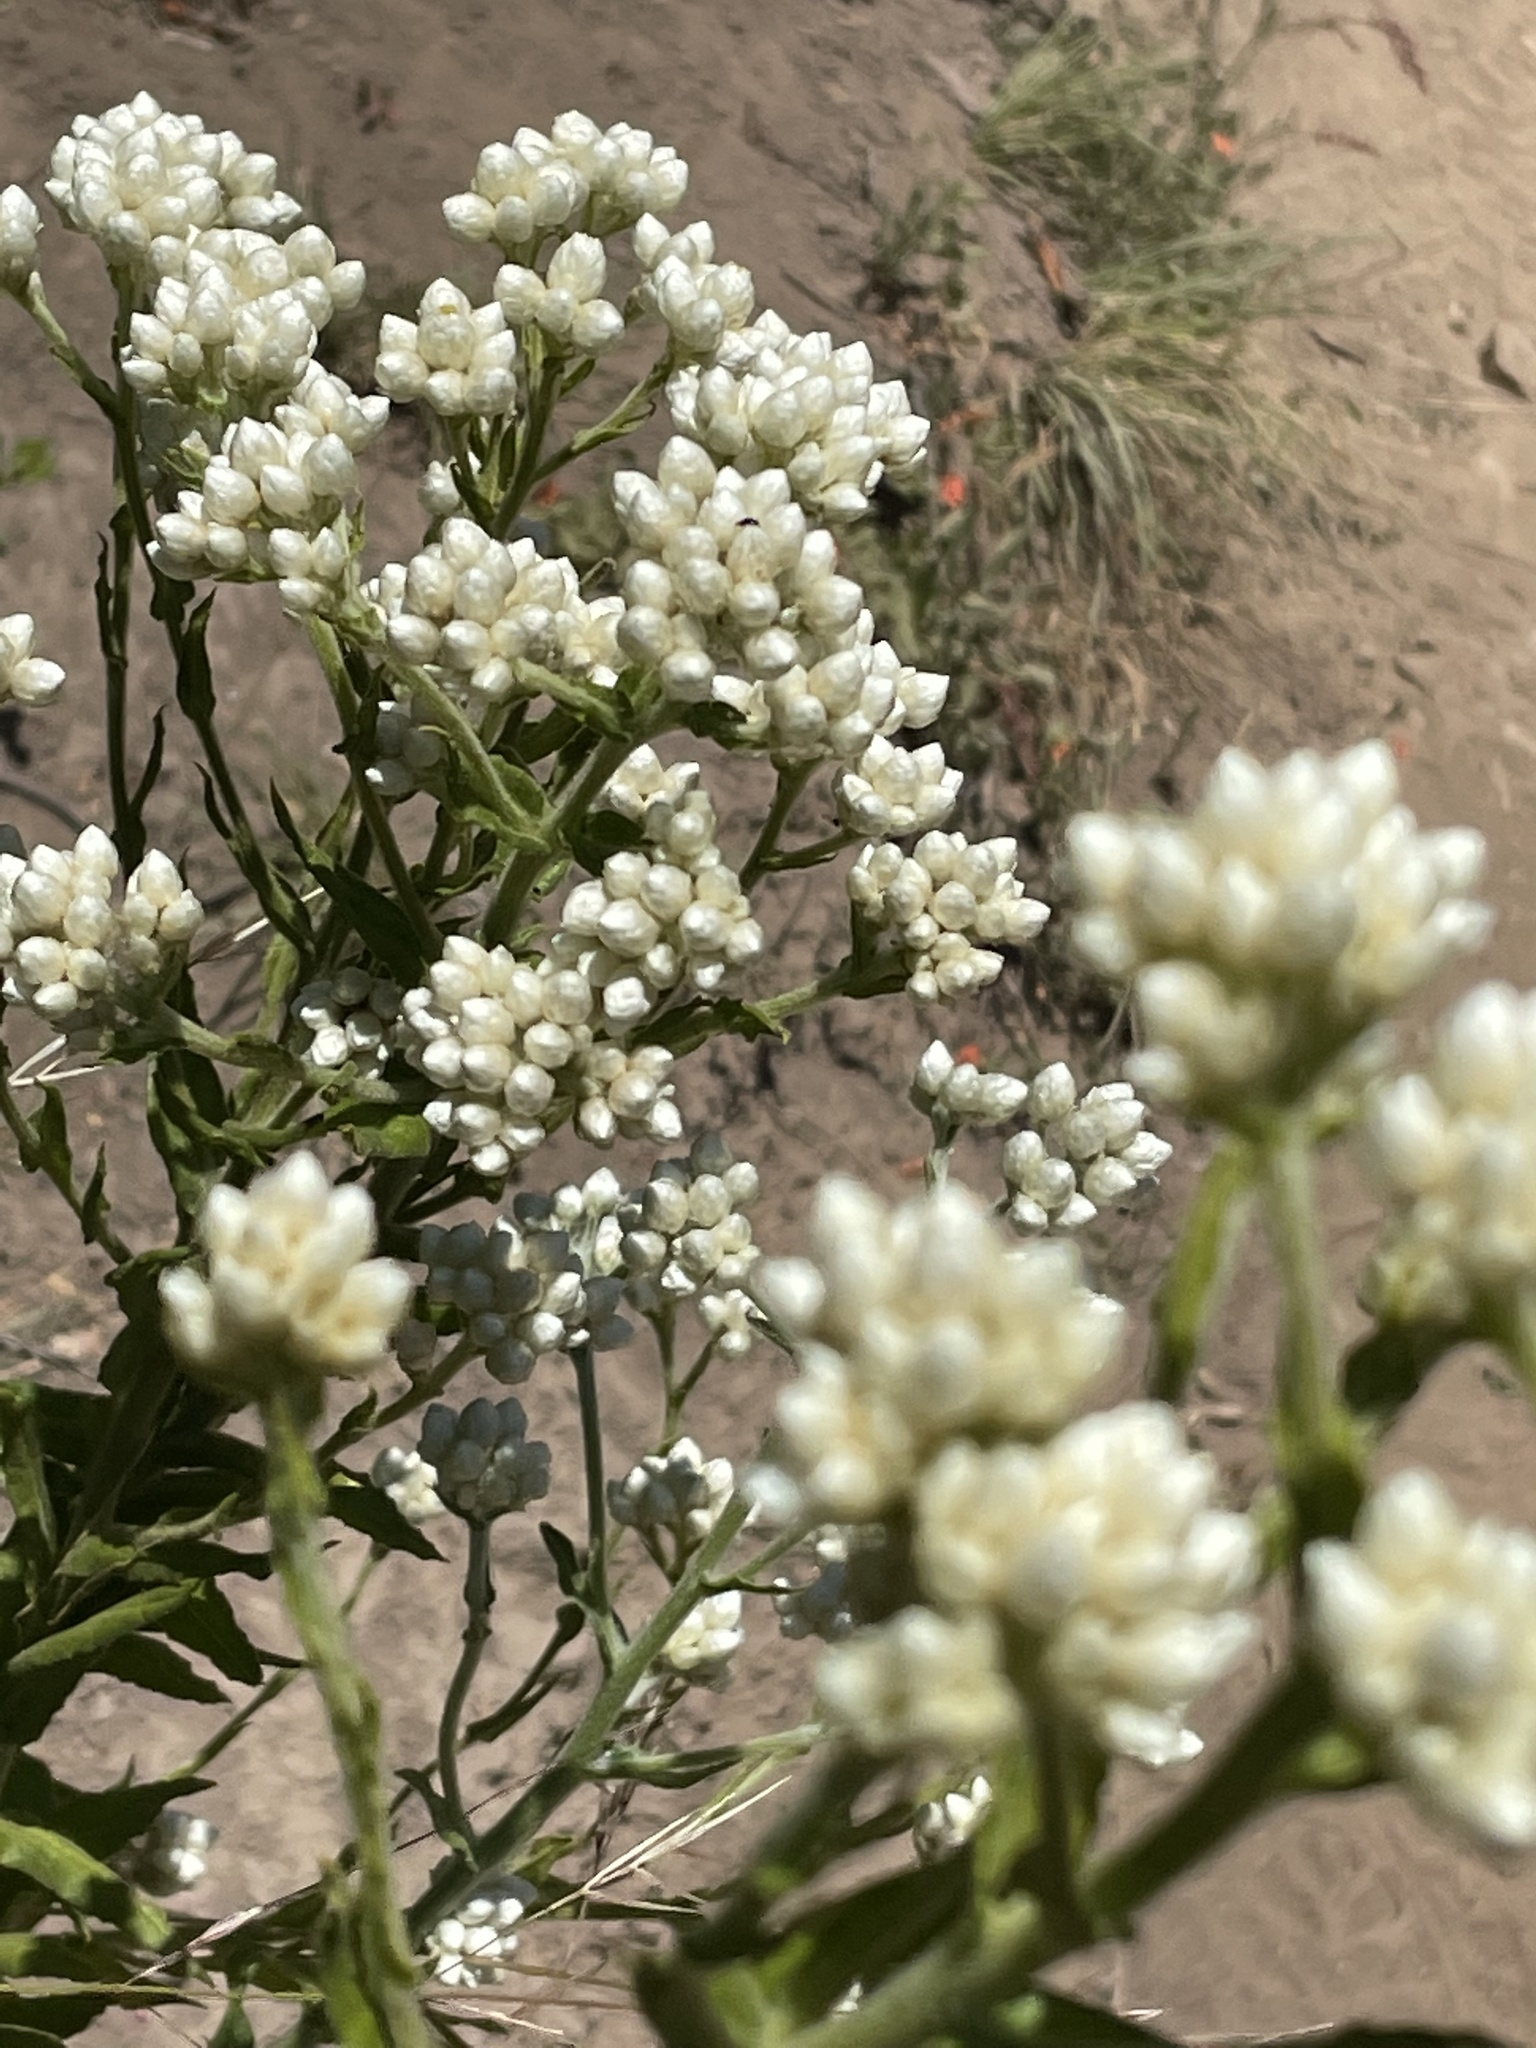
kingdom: Plantae
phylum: Tracheophyta
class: Magnoliopsida
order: Asterales
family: Asteraceae
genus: Pseudognaphalium
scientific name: Pseudognaphalium californicum
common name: California rabbit-tobacco
